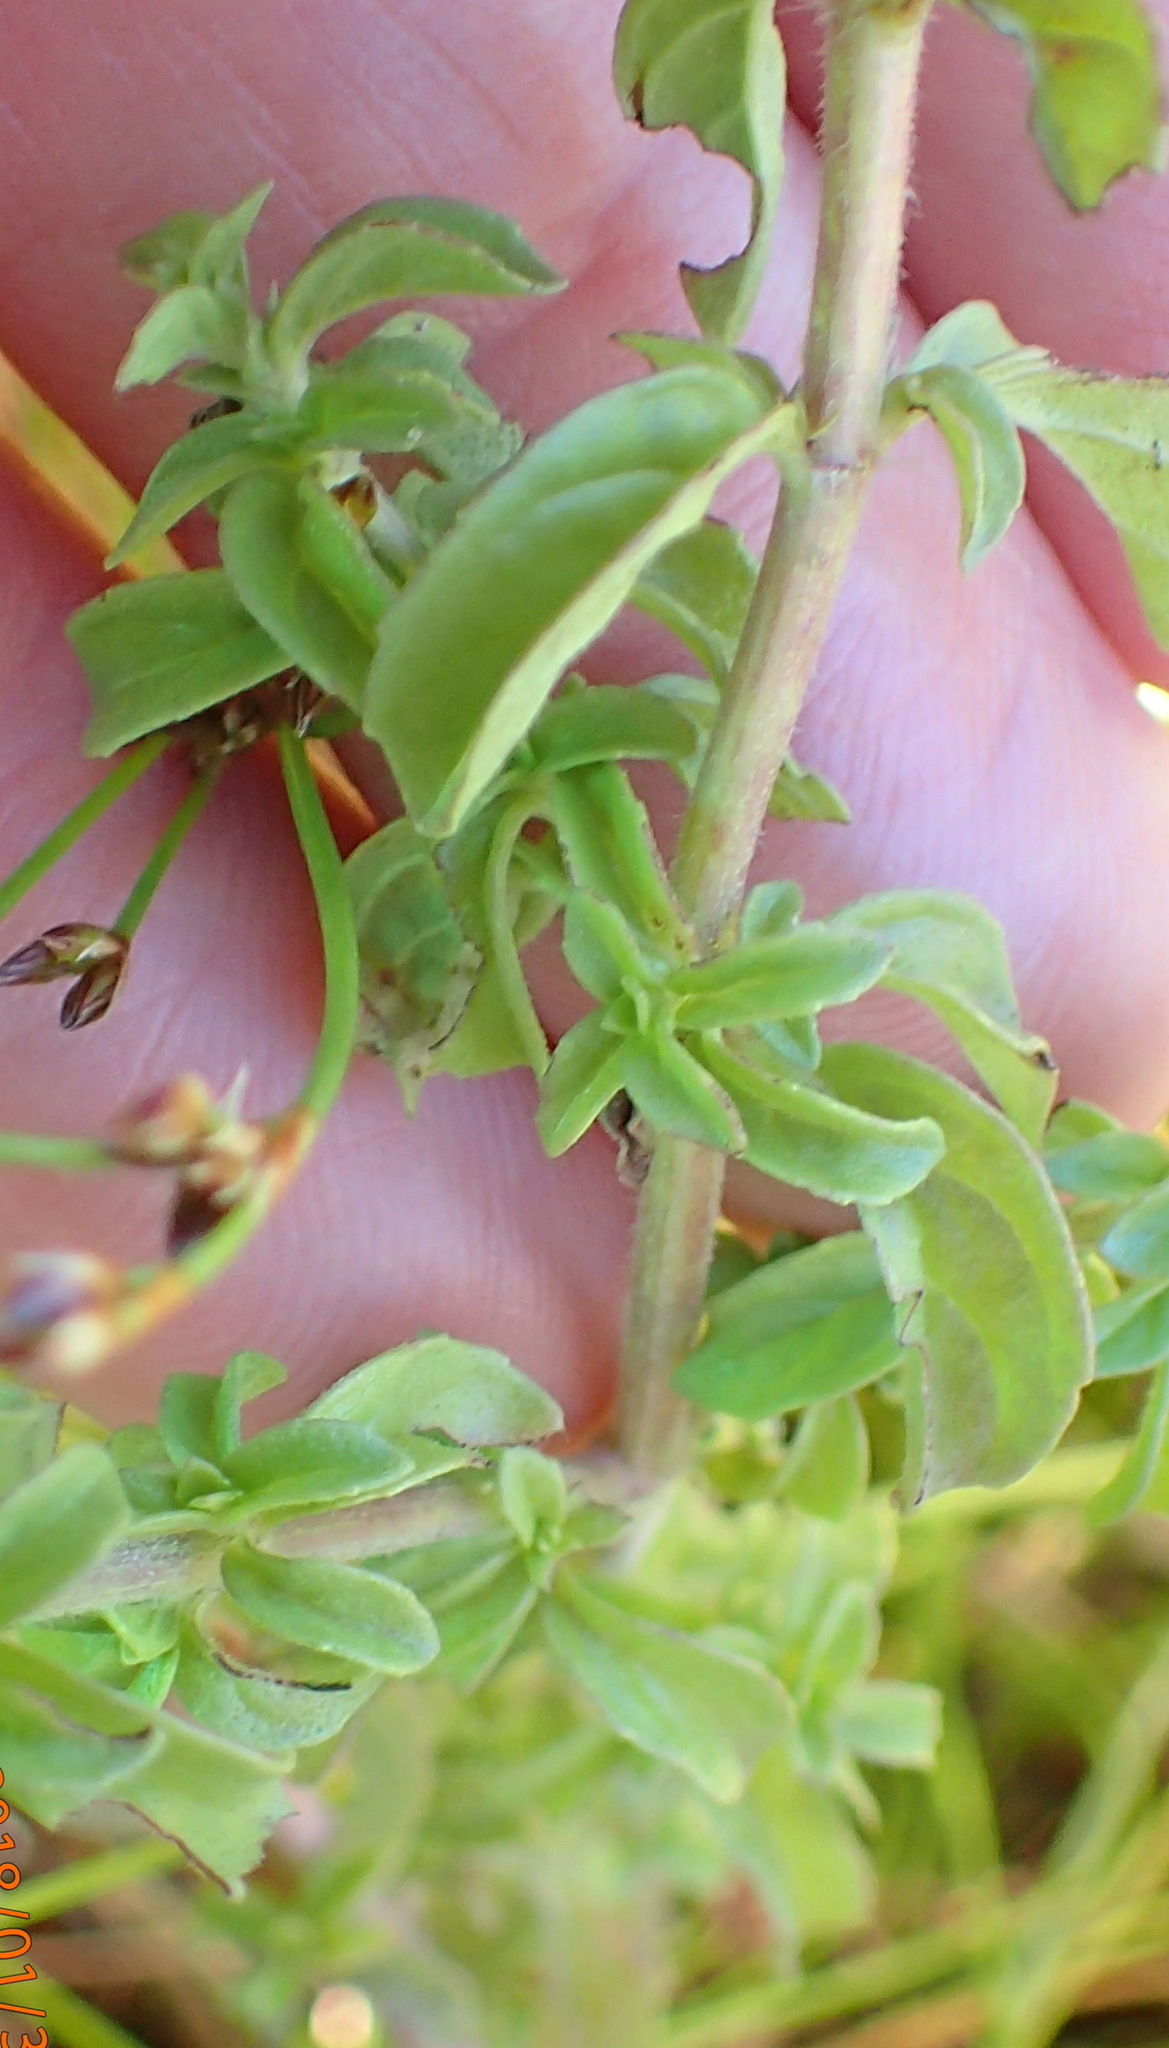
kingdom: Plantae
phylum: Tracheophyta
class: Magnoliopsida
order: Lamiales
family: Lamiaceae
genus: Mentha
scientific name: Mentha pulegium
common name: Pennyroyal
